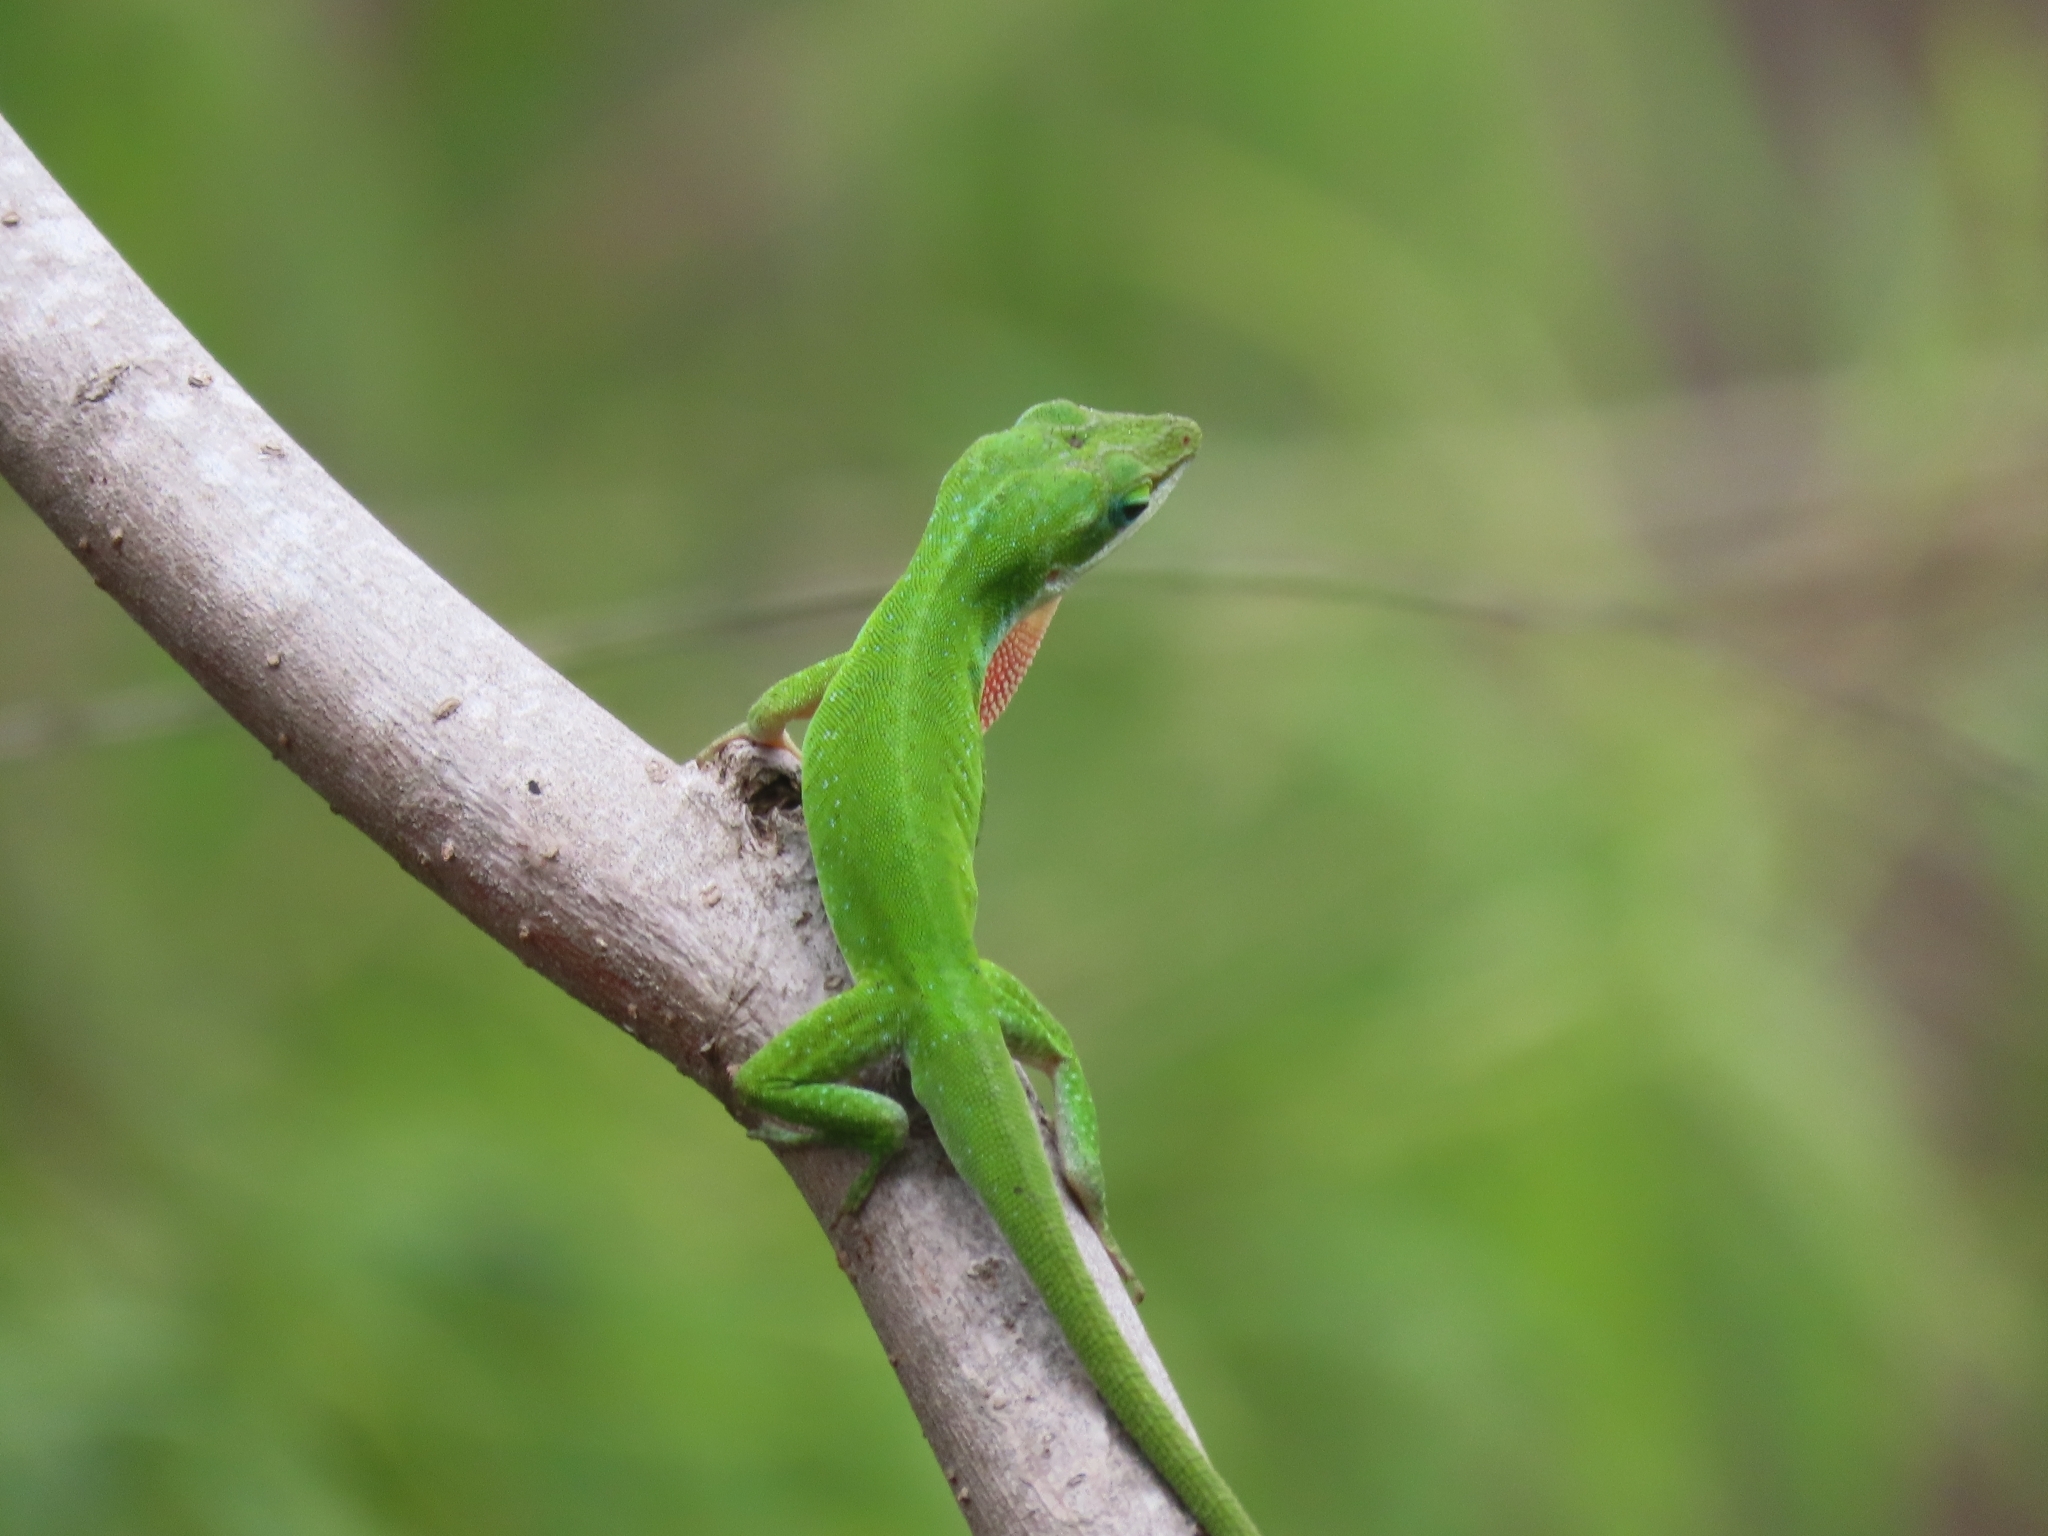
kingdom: Animalia
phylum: Chordata
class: Squamata
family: Dactyloidae
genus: Anolis
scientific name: Anolis carolinensis
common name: Green anole
